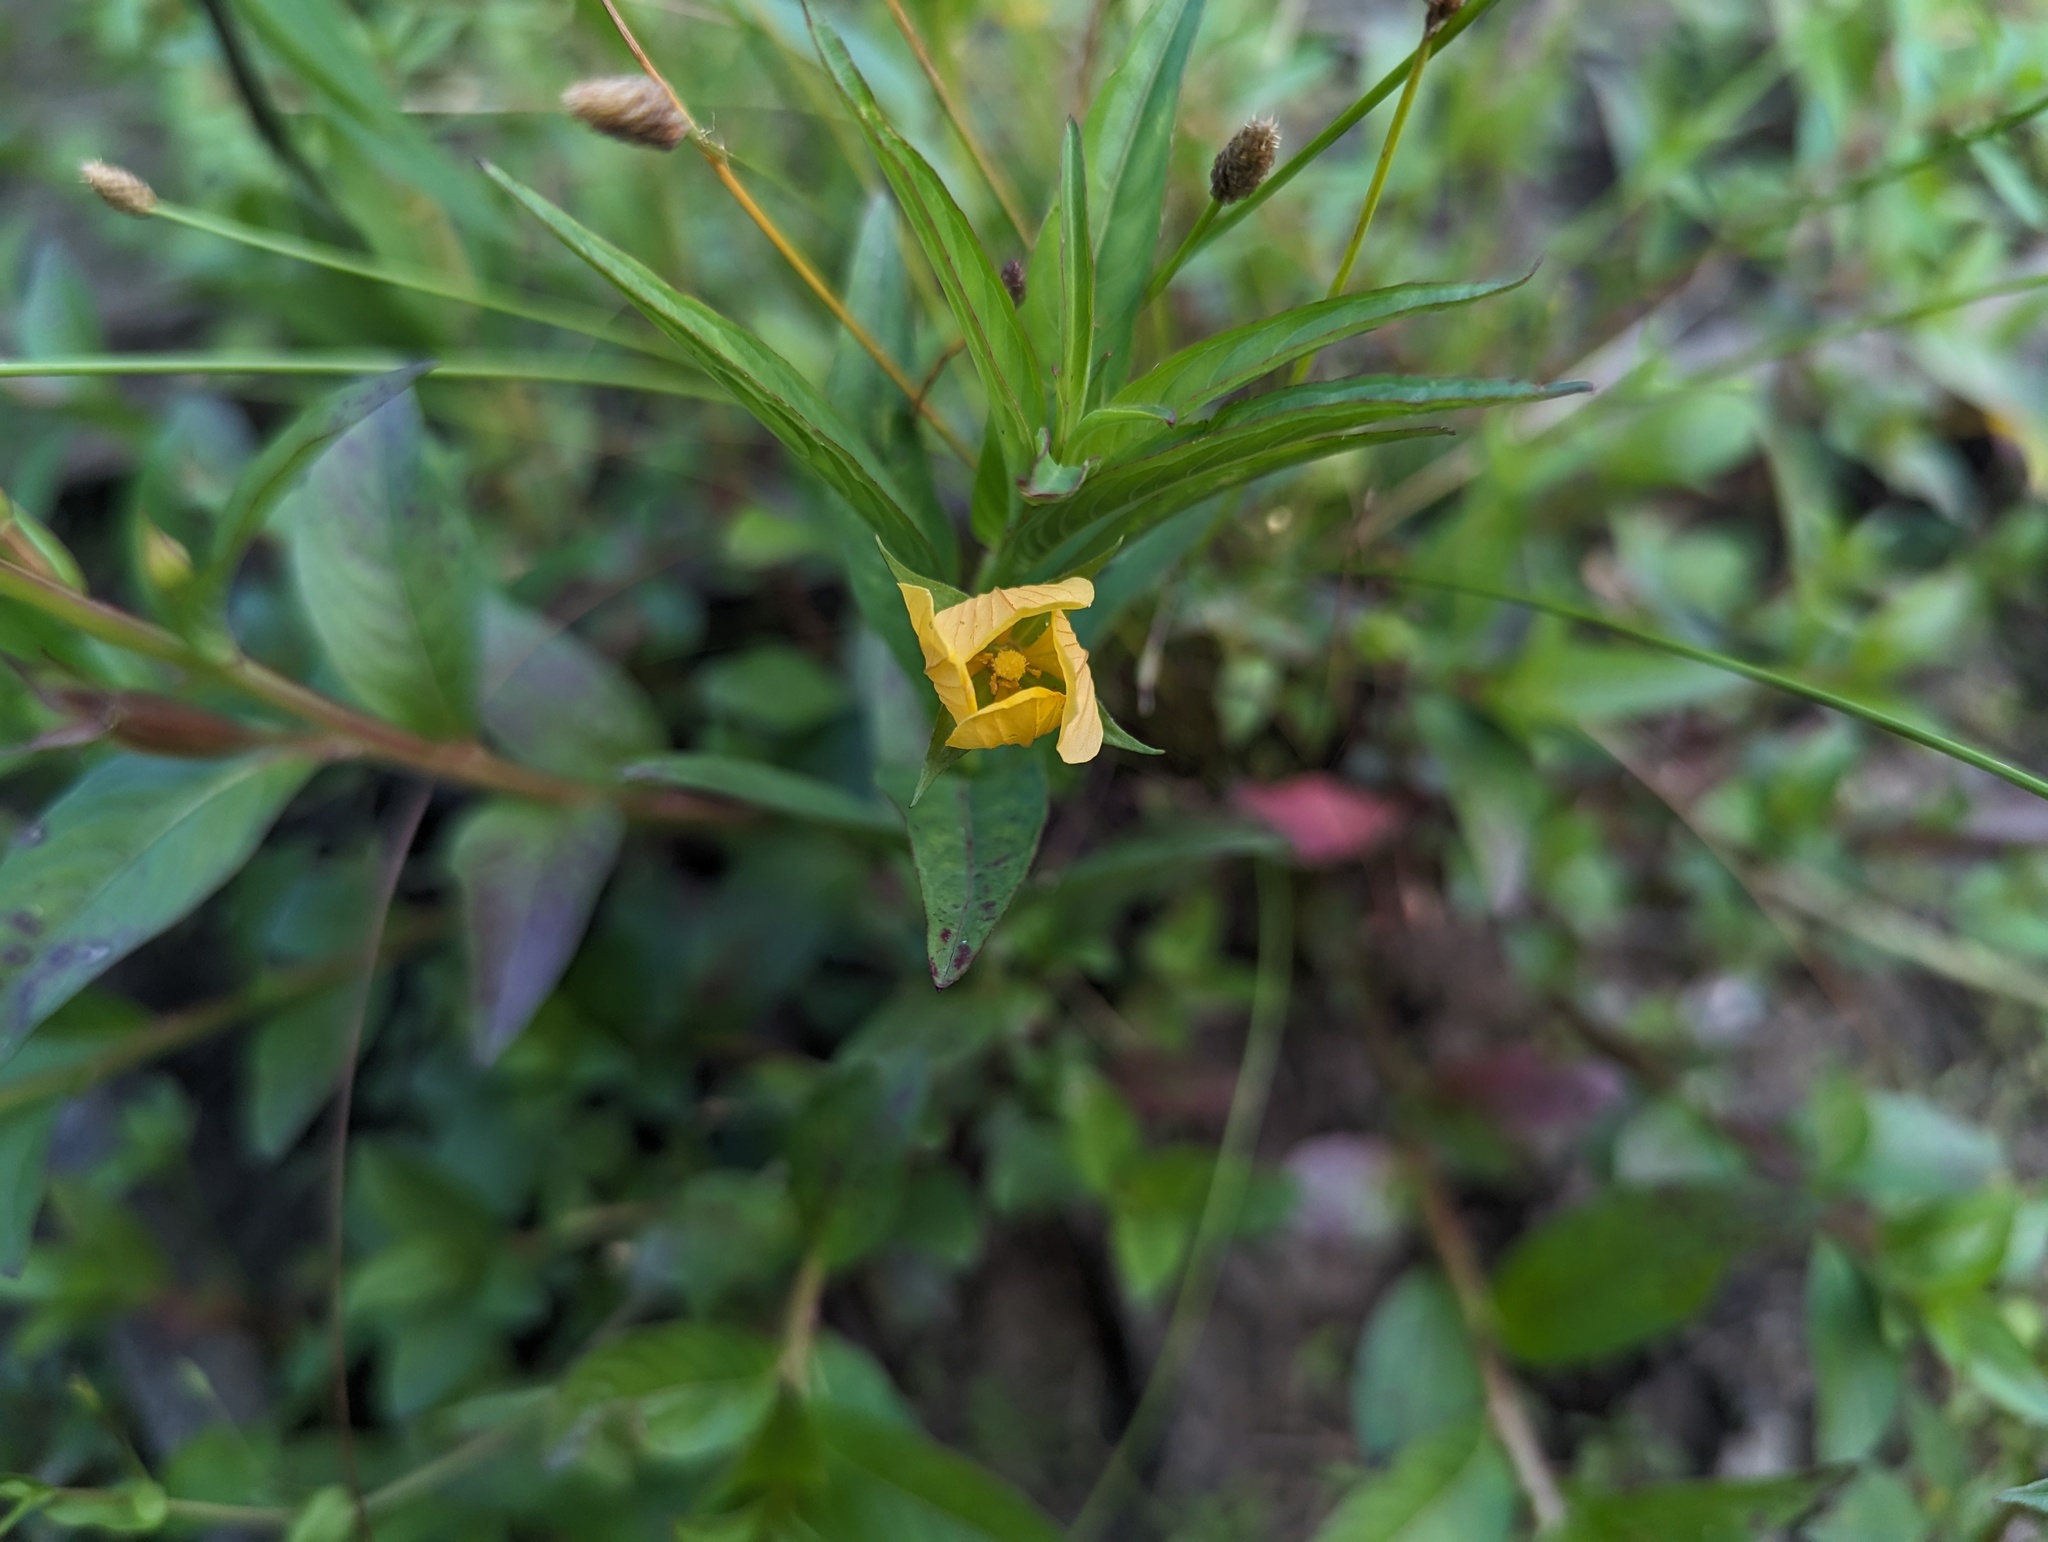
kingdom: Plantae
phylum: Tracheophyta
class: Magnoliopsida
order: Myrtales
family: Onagraceae
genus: Ludwigia
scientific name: Ludwigia decurrens
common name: Winged water-primrose
